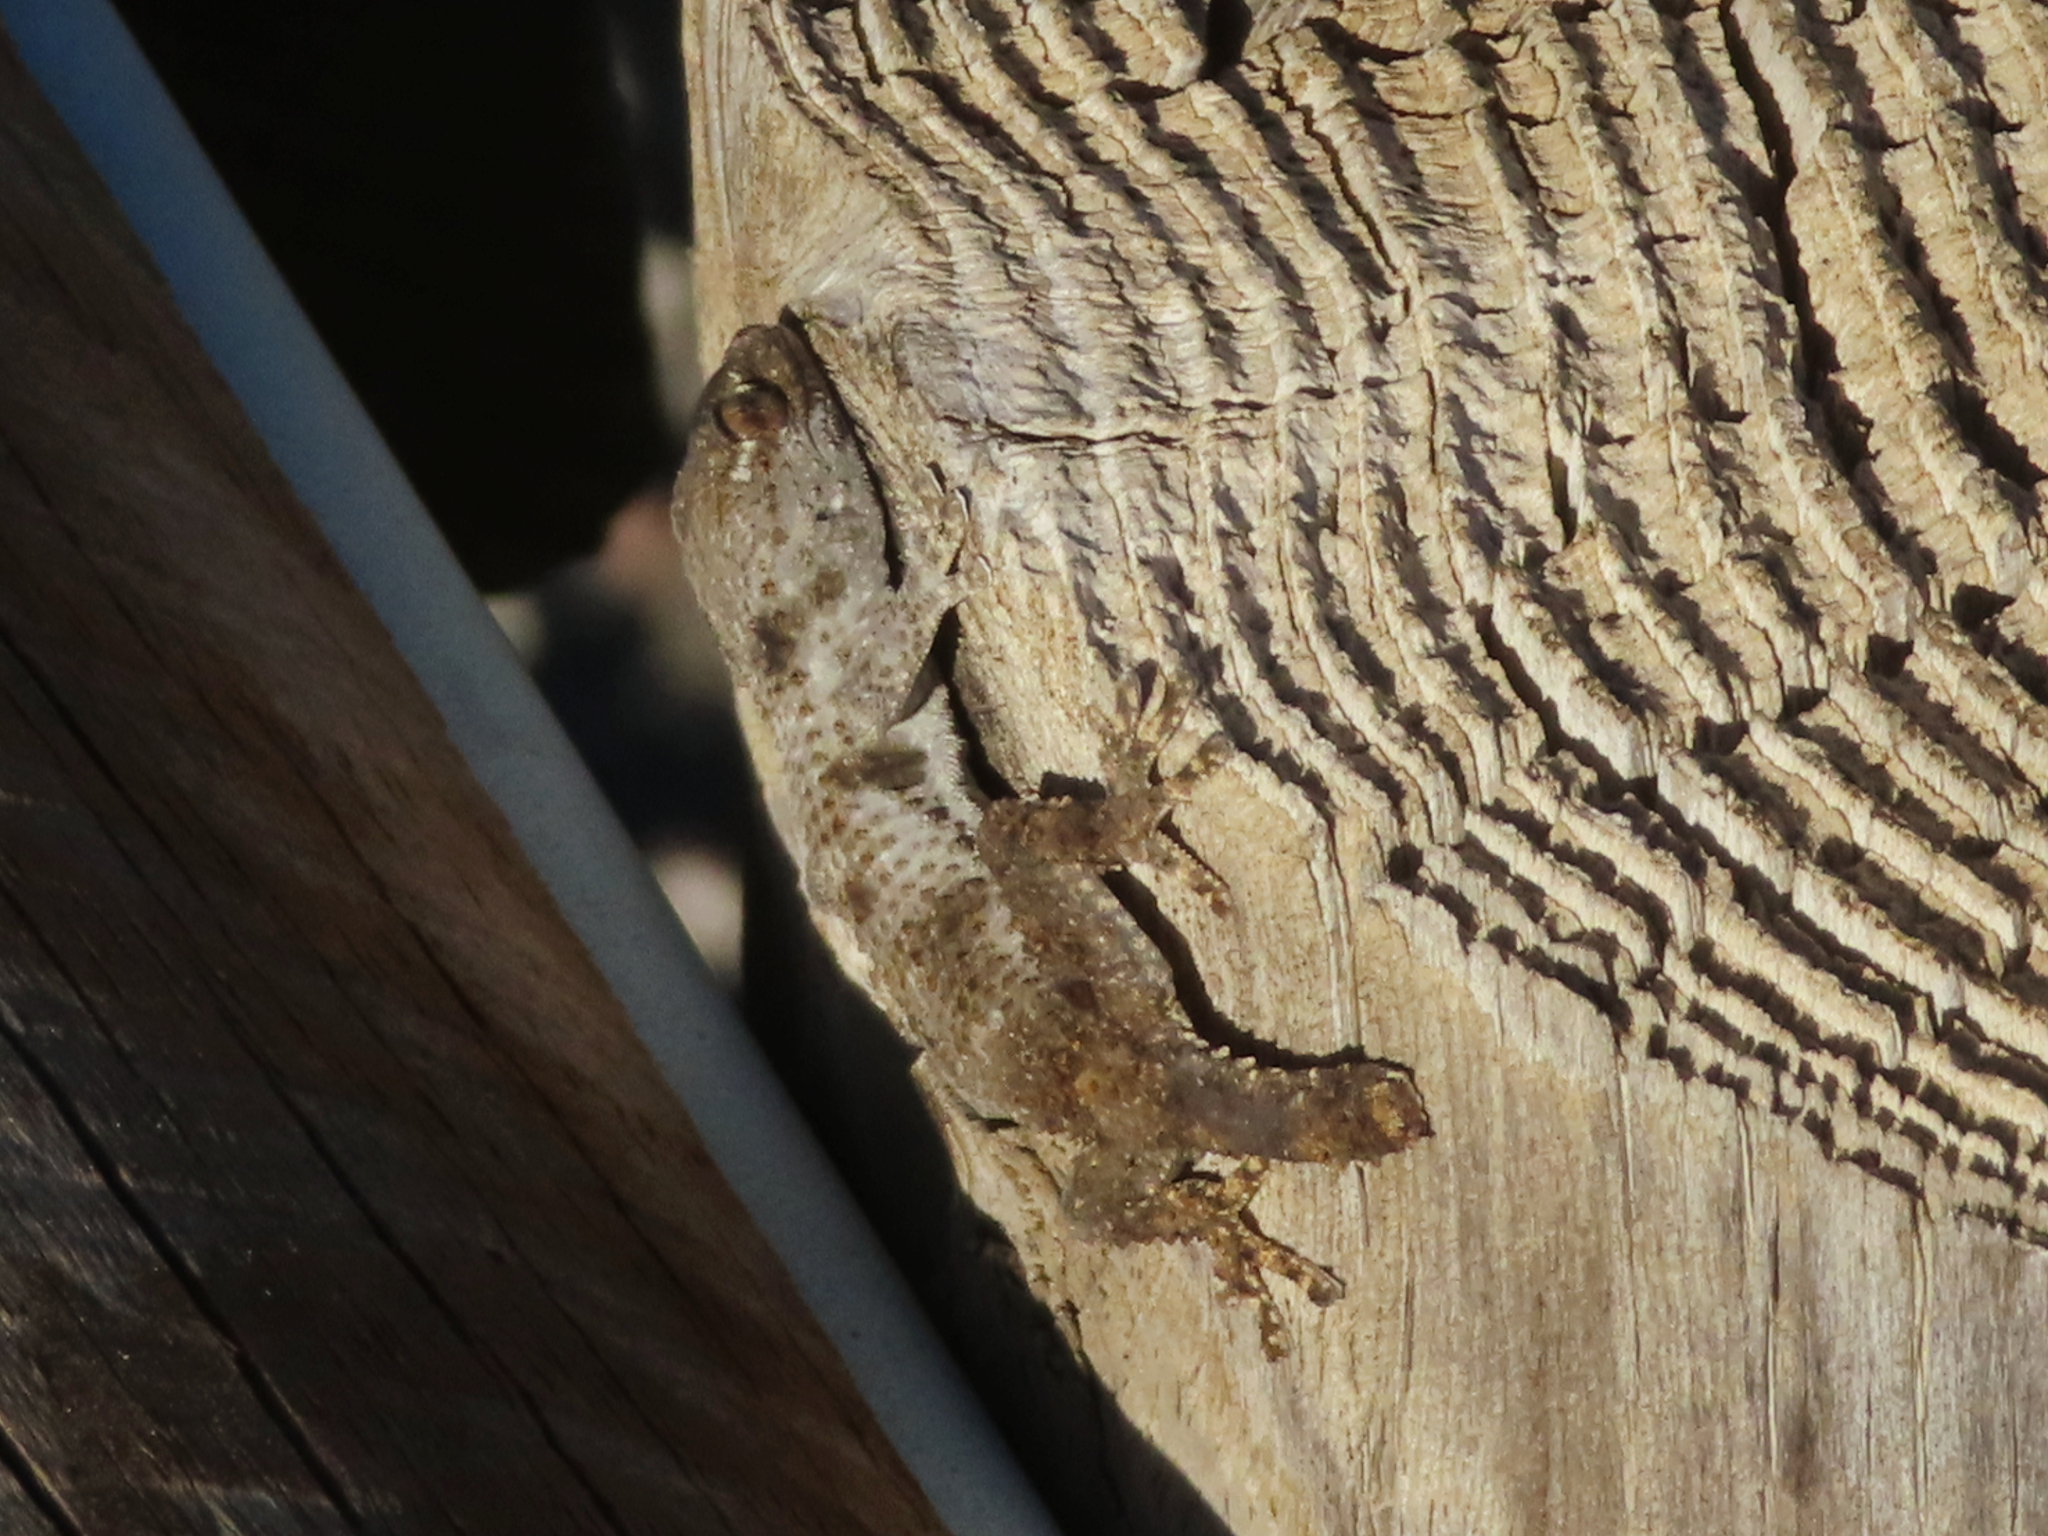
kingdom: Animalia
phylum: Chordata
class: Squamata
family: Phyllodactylidae
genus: Tarentola
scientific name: Tarentola mauritanica
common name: Moorish gecko
